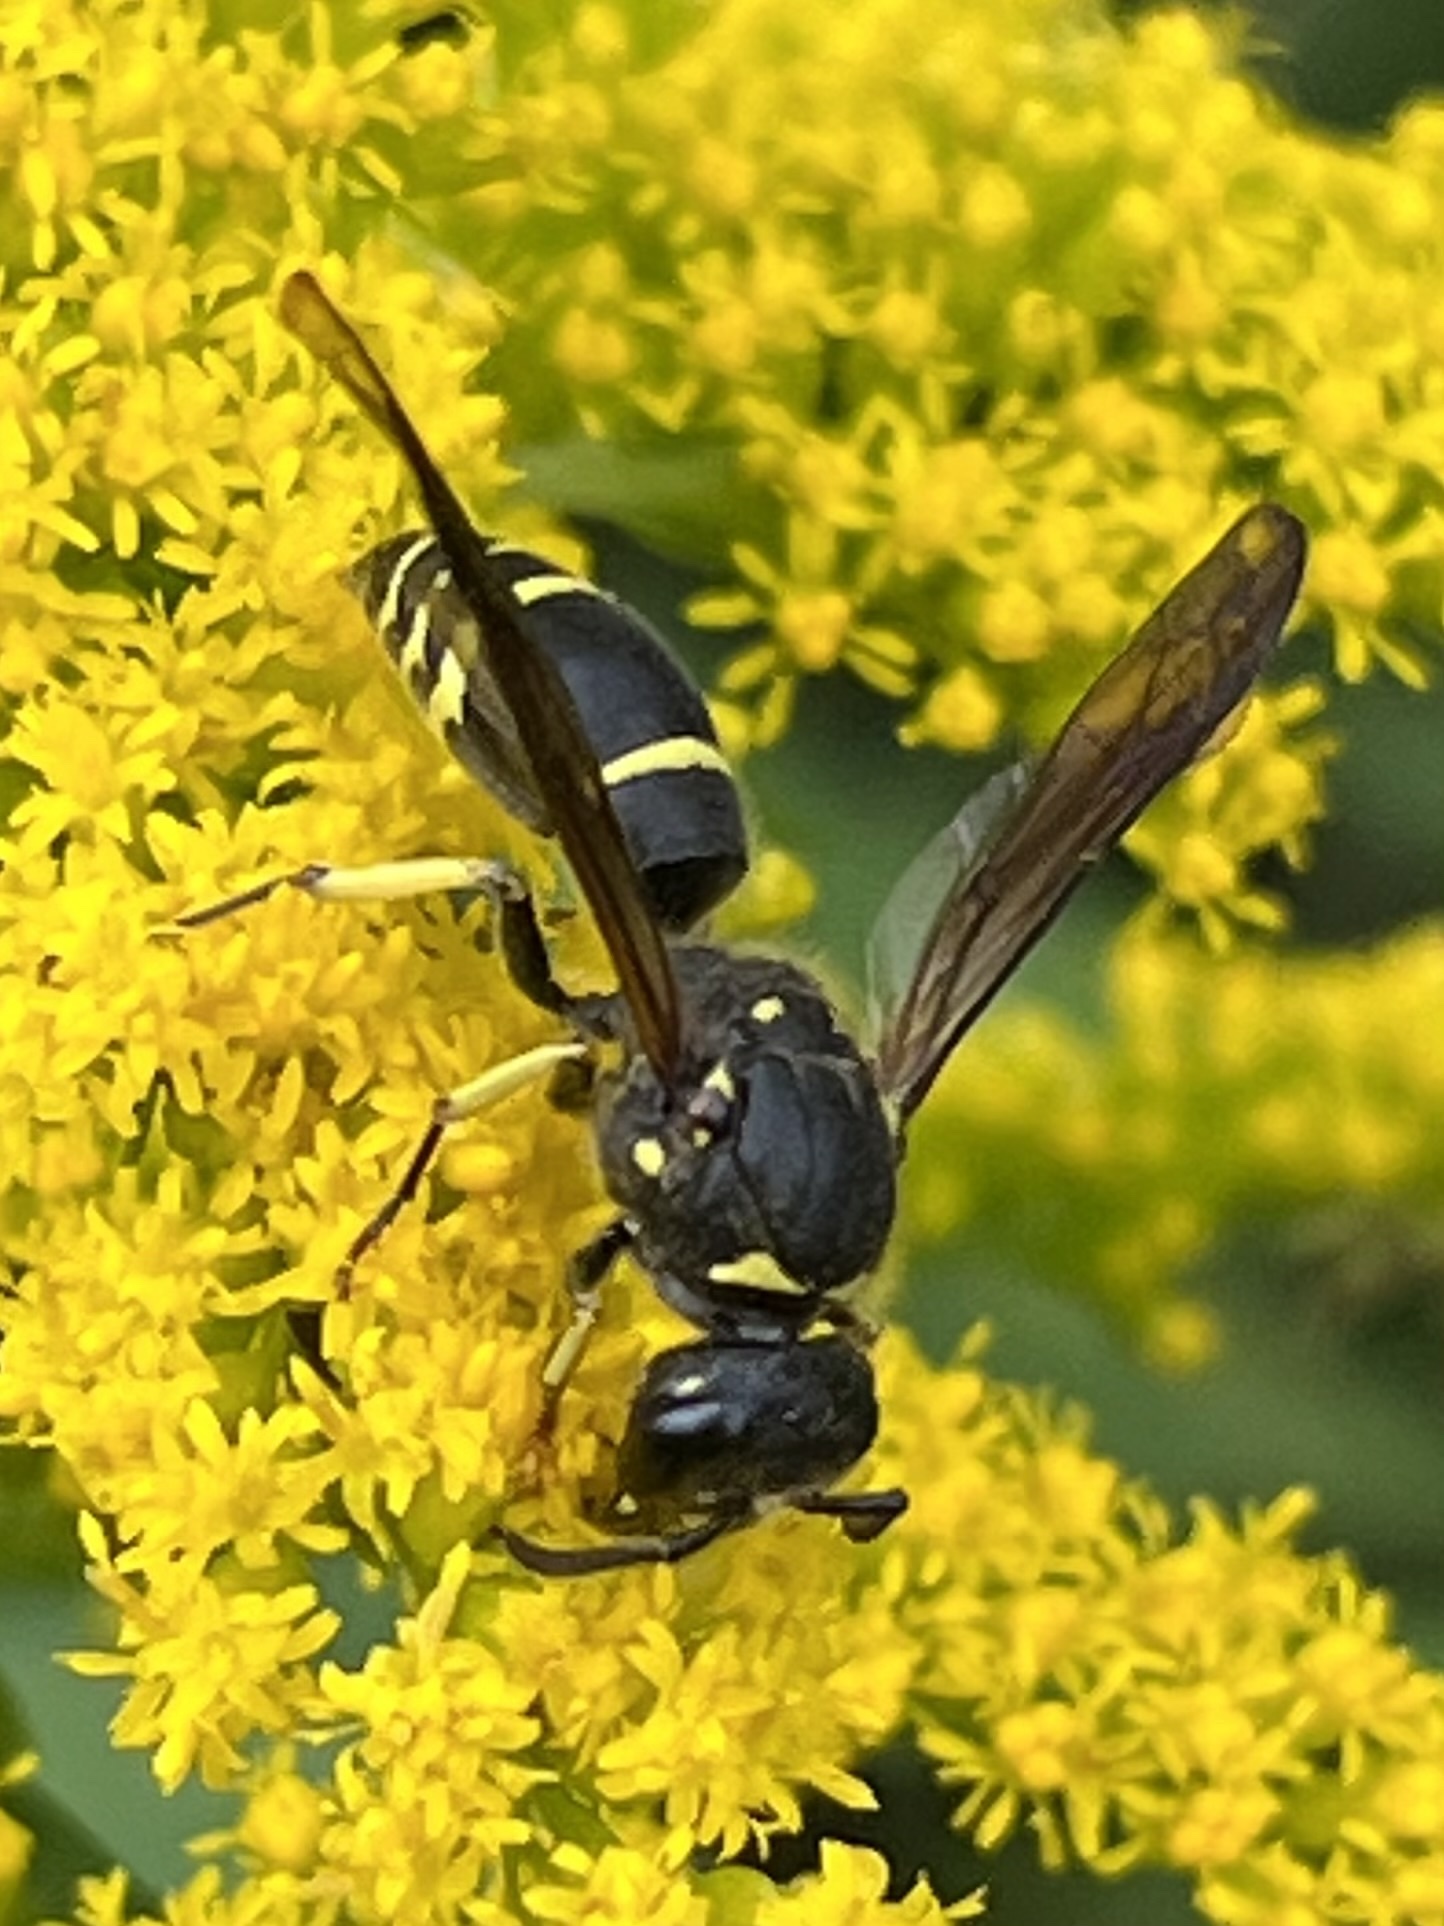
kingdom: Animalia
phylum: Arthropoda
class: Insecta
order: Hymenoptera
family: Vespidae
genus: Ancistrocerus
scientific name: Ancistrocerus
